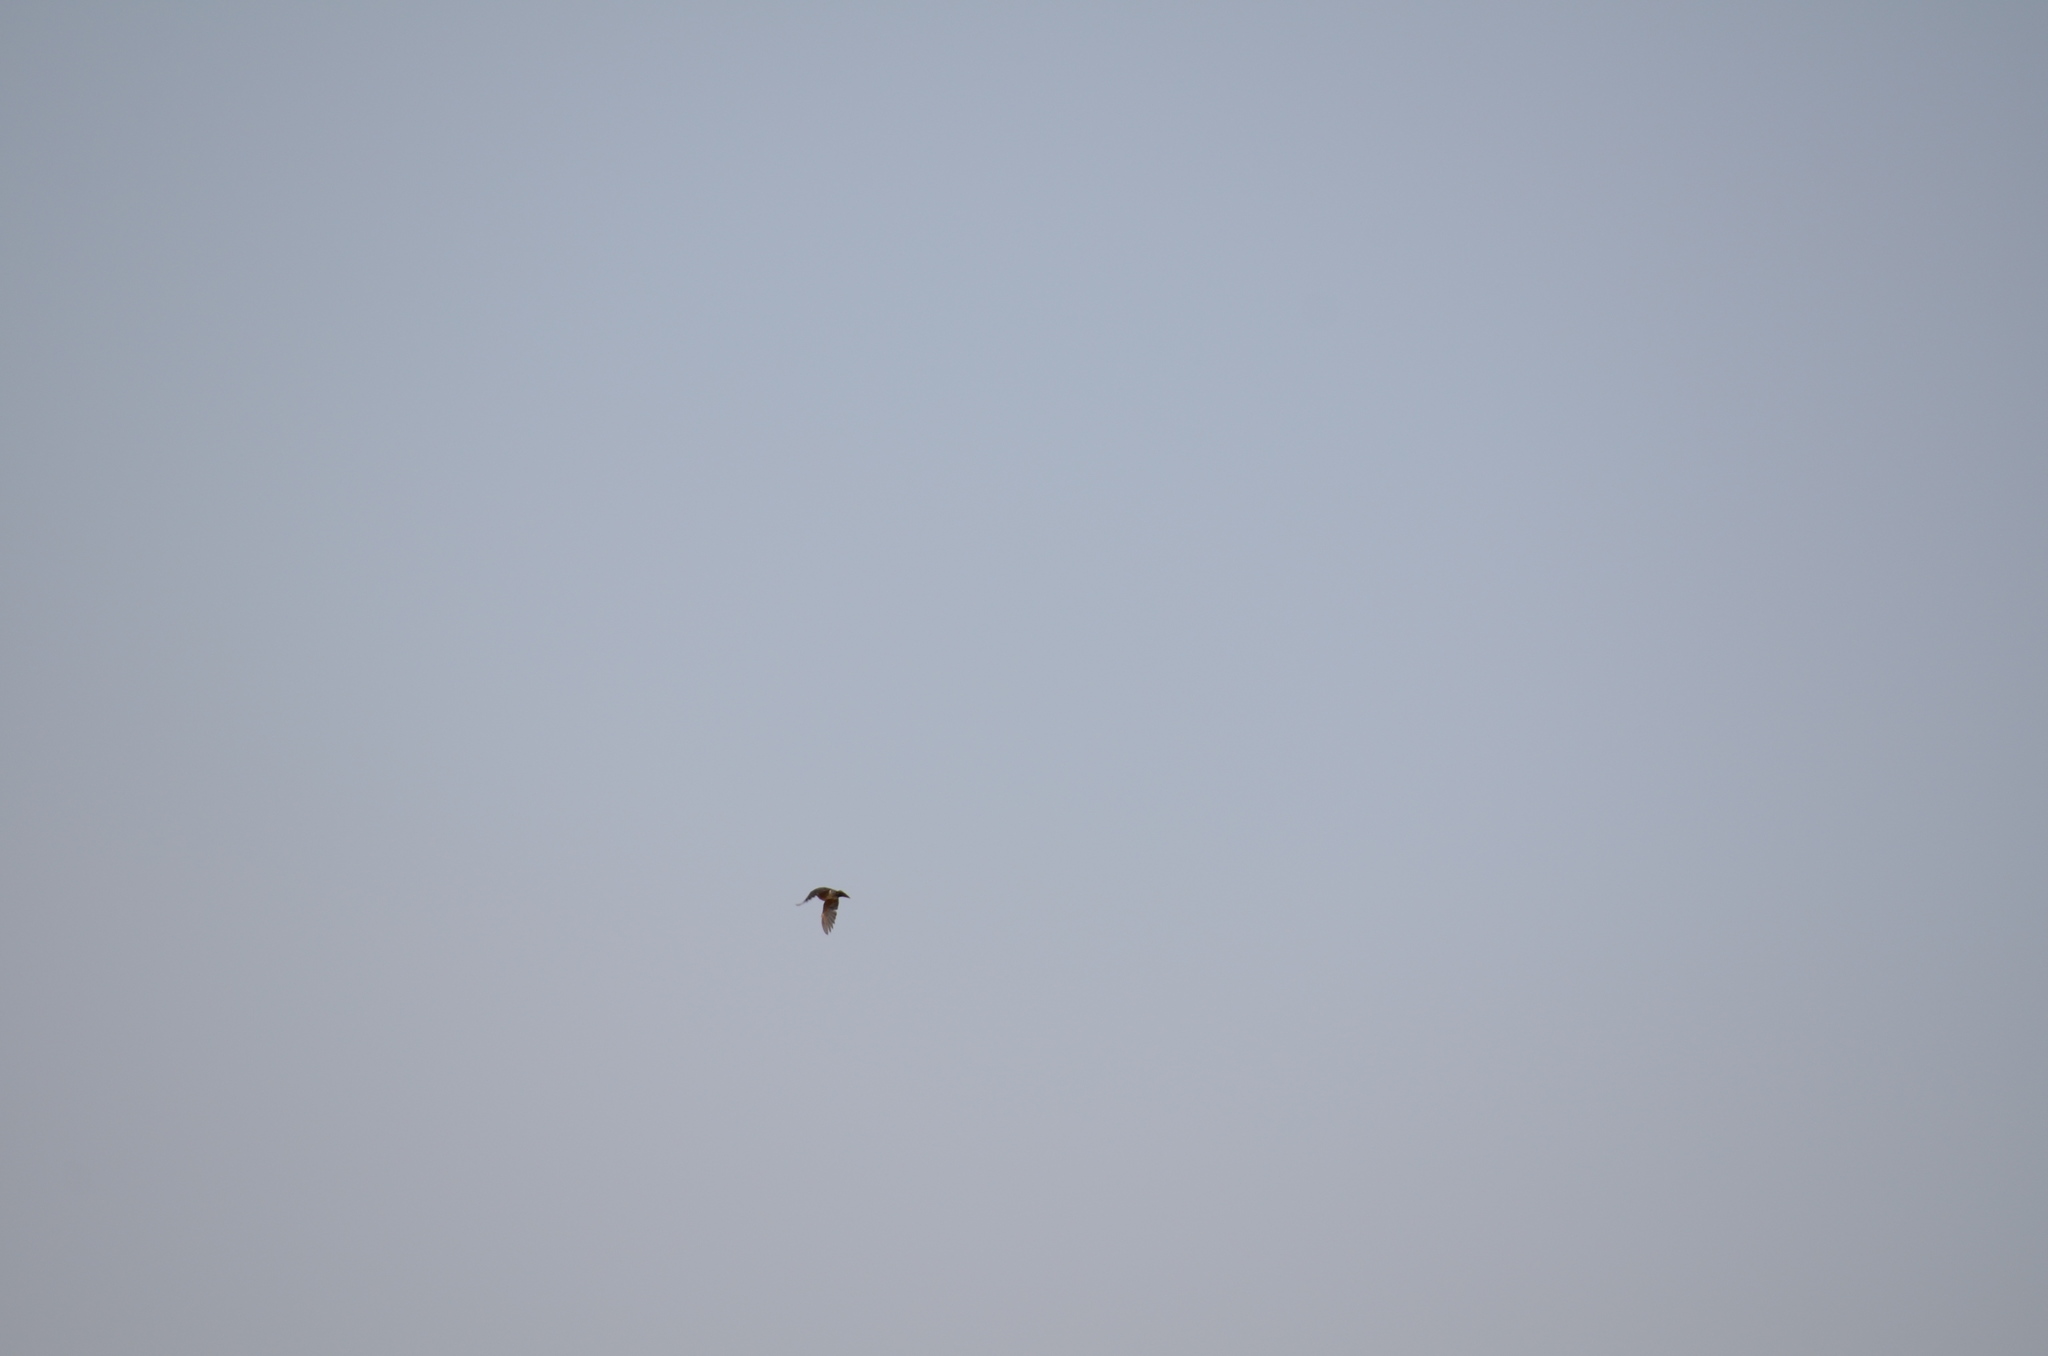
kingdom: Animalia
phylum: Chordata
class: Aves
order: Accipitriformes
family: Accipitridae
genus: Buteo
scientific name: Buteo jamaicensis
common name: Red-tailed hawk
